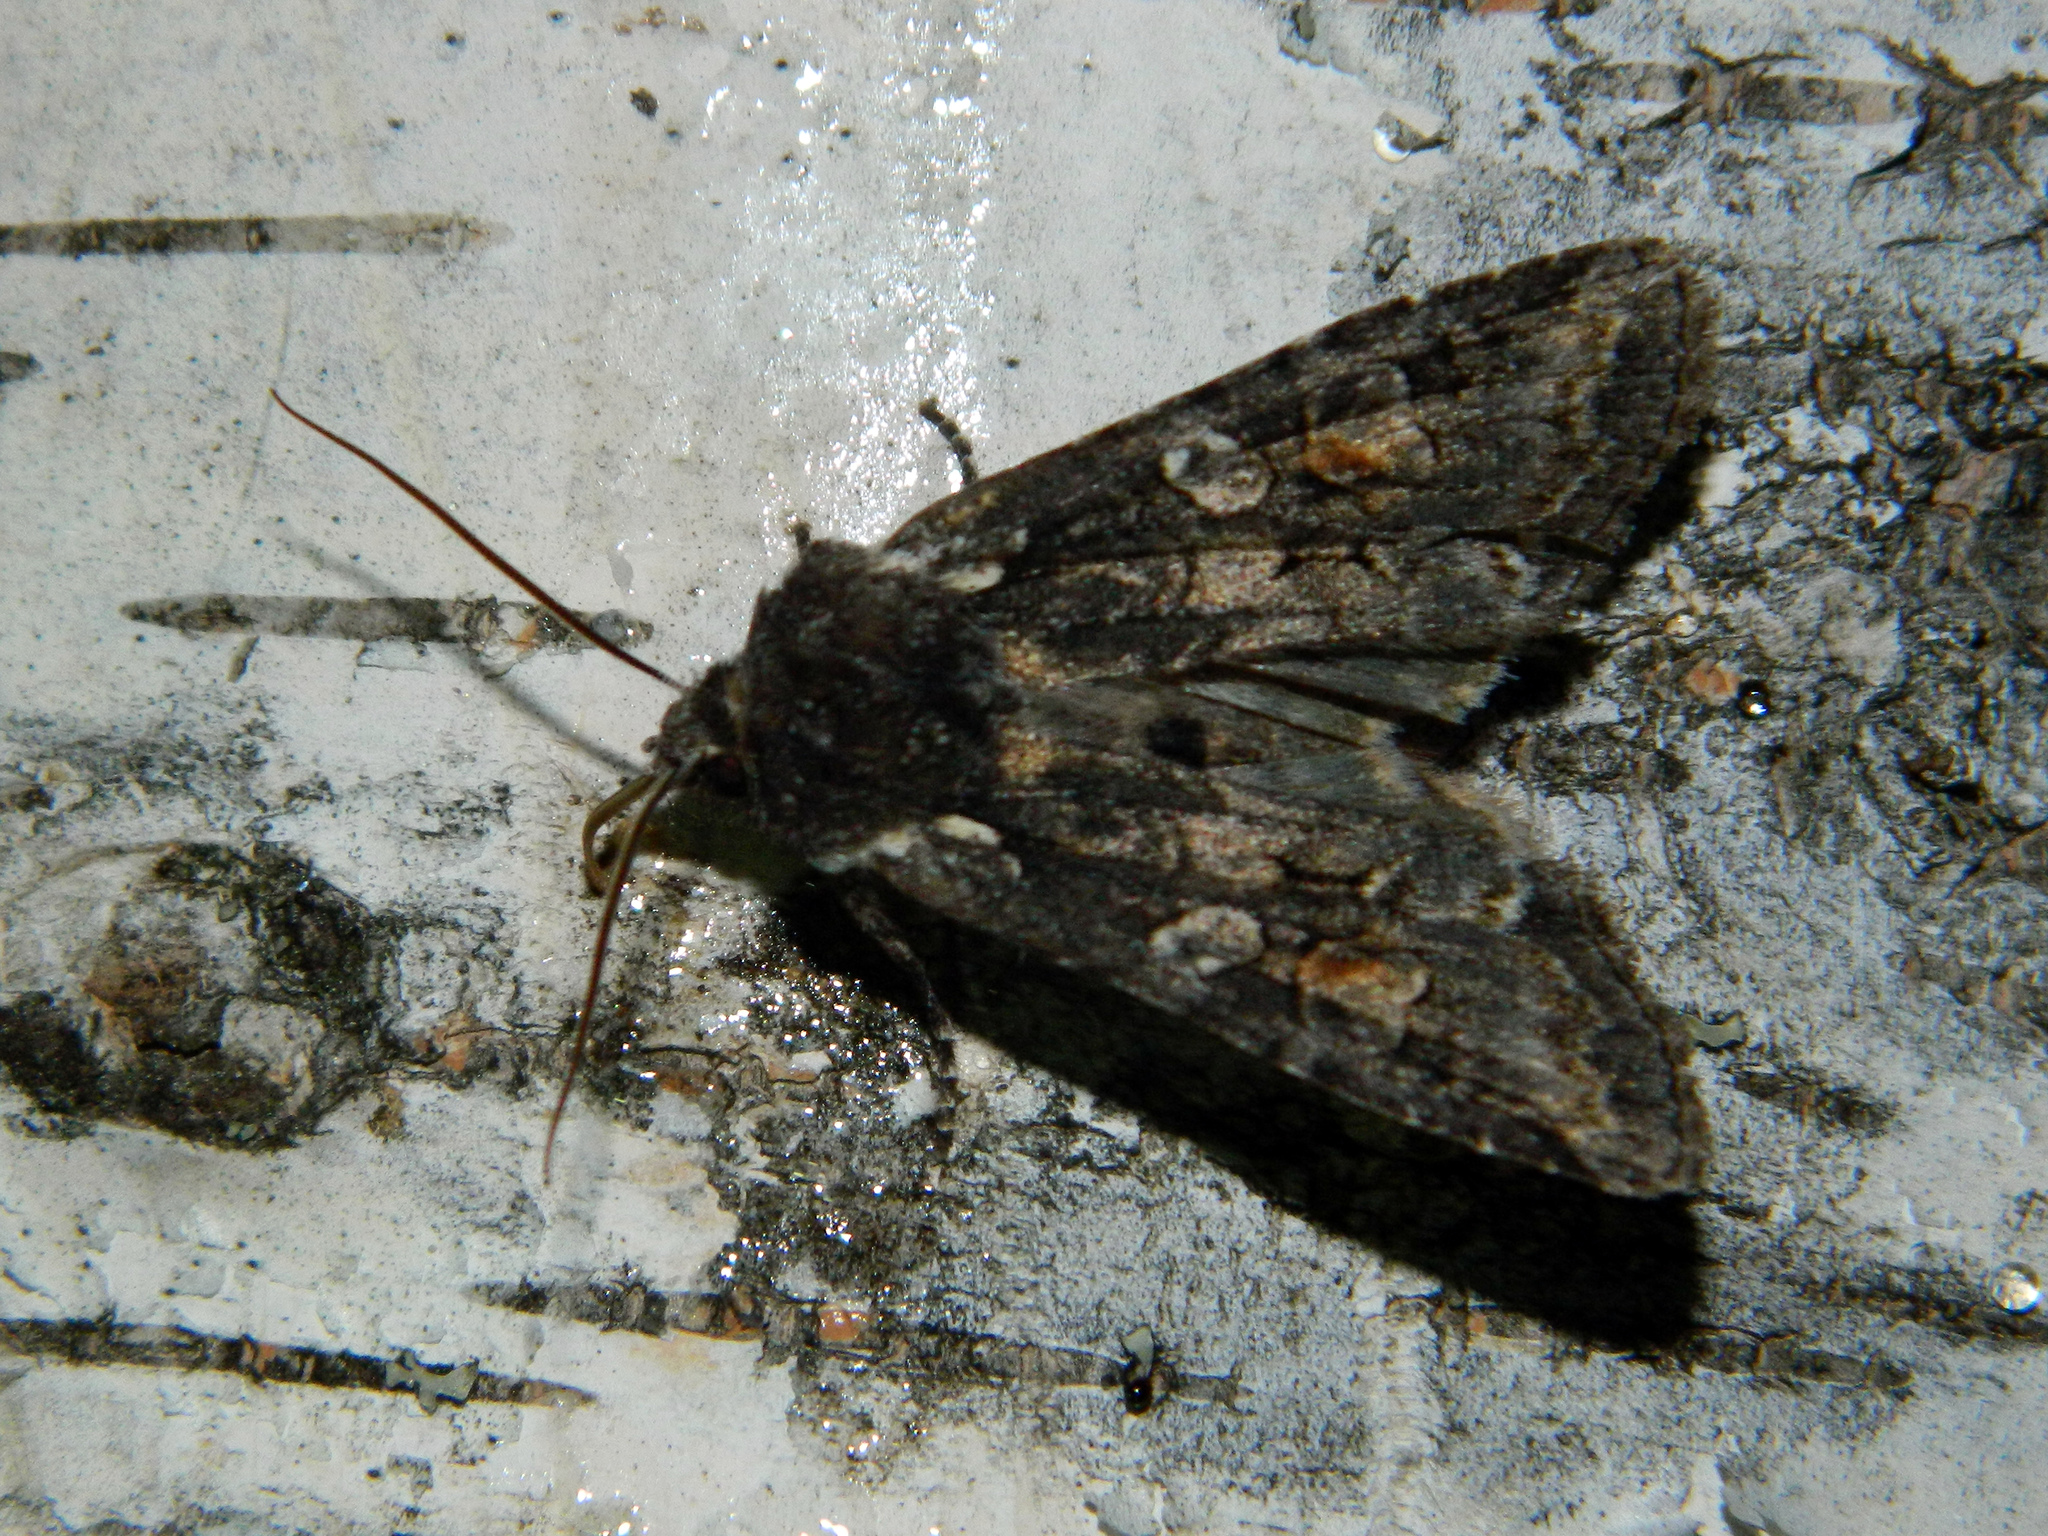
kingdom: Animalia
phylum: Arthropoda
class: Insecta
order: Lepidoptera
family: Noctuidae
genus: Lithophane
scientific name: Lithophane pexata
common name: Plush-naped pinion moth
